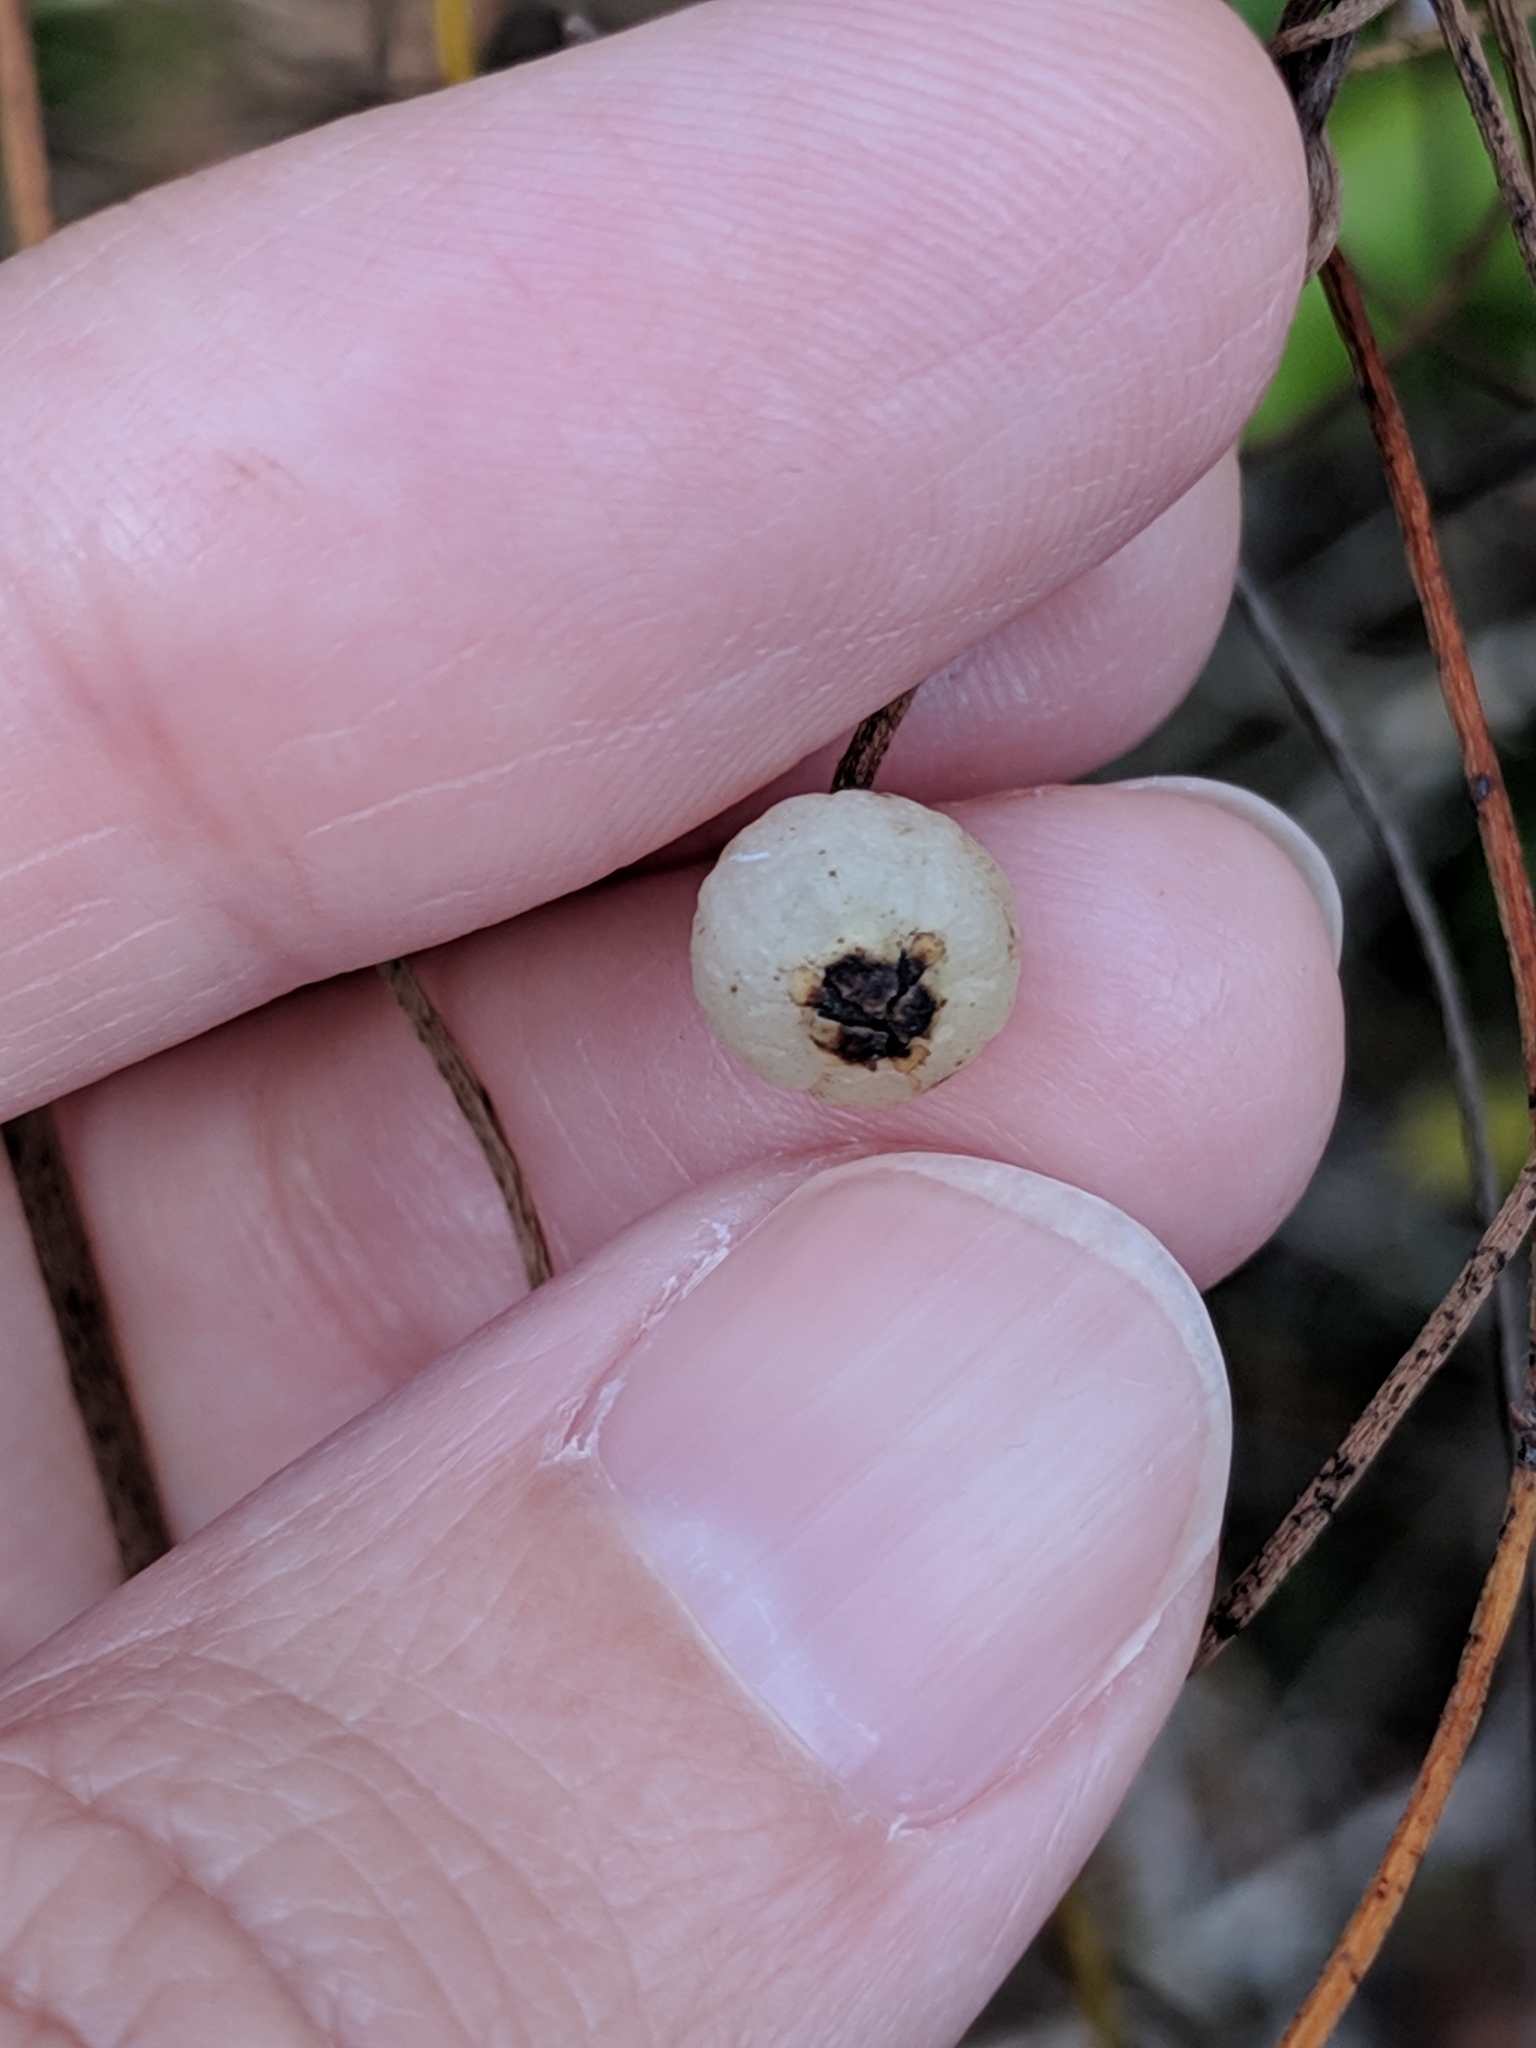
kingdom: Plantae
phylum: Tracheophyta
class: Magnoliopsida
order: Laurales
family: Lauraceae
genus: Cassytha
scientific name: Cassytha filiformis
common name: Dodder-laurel
